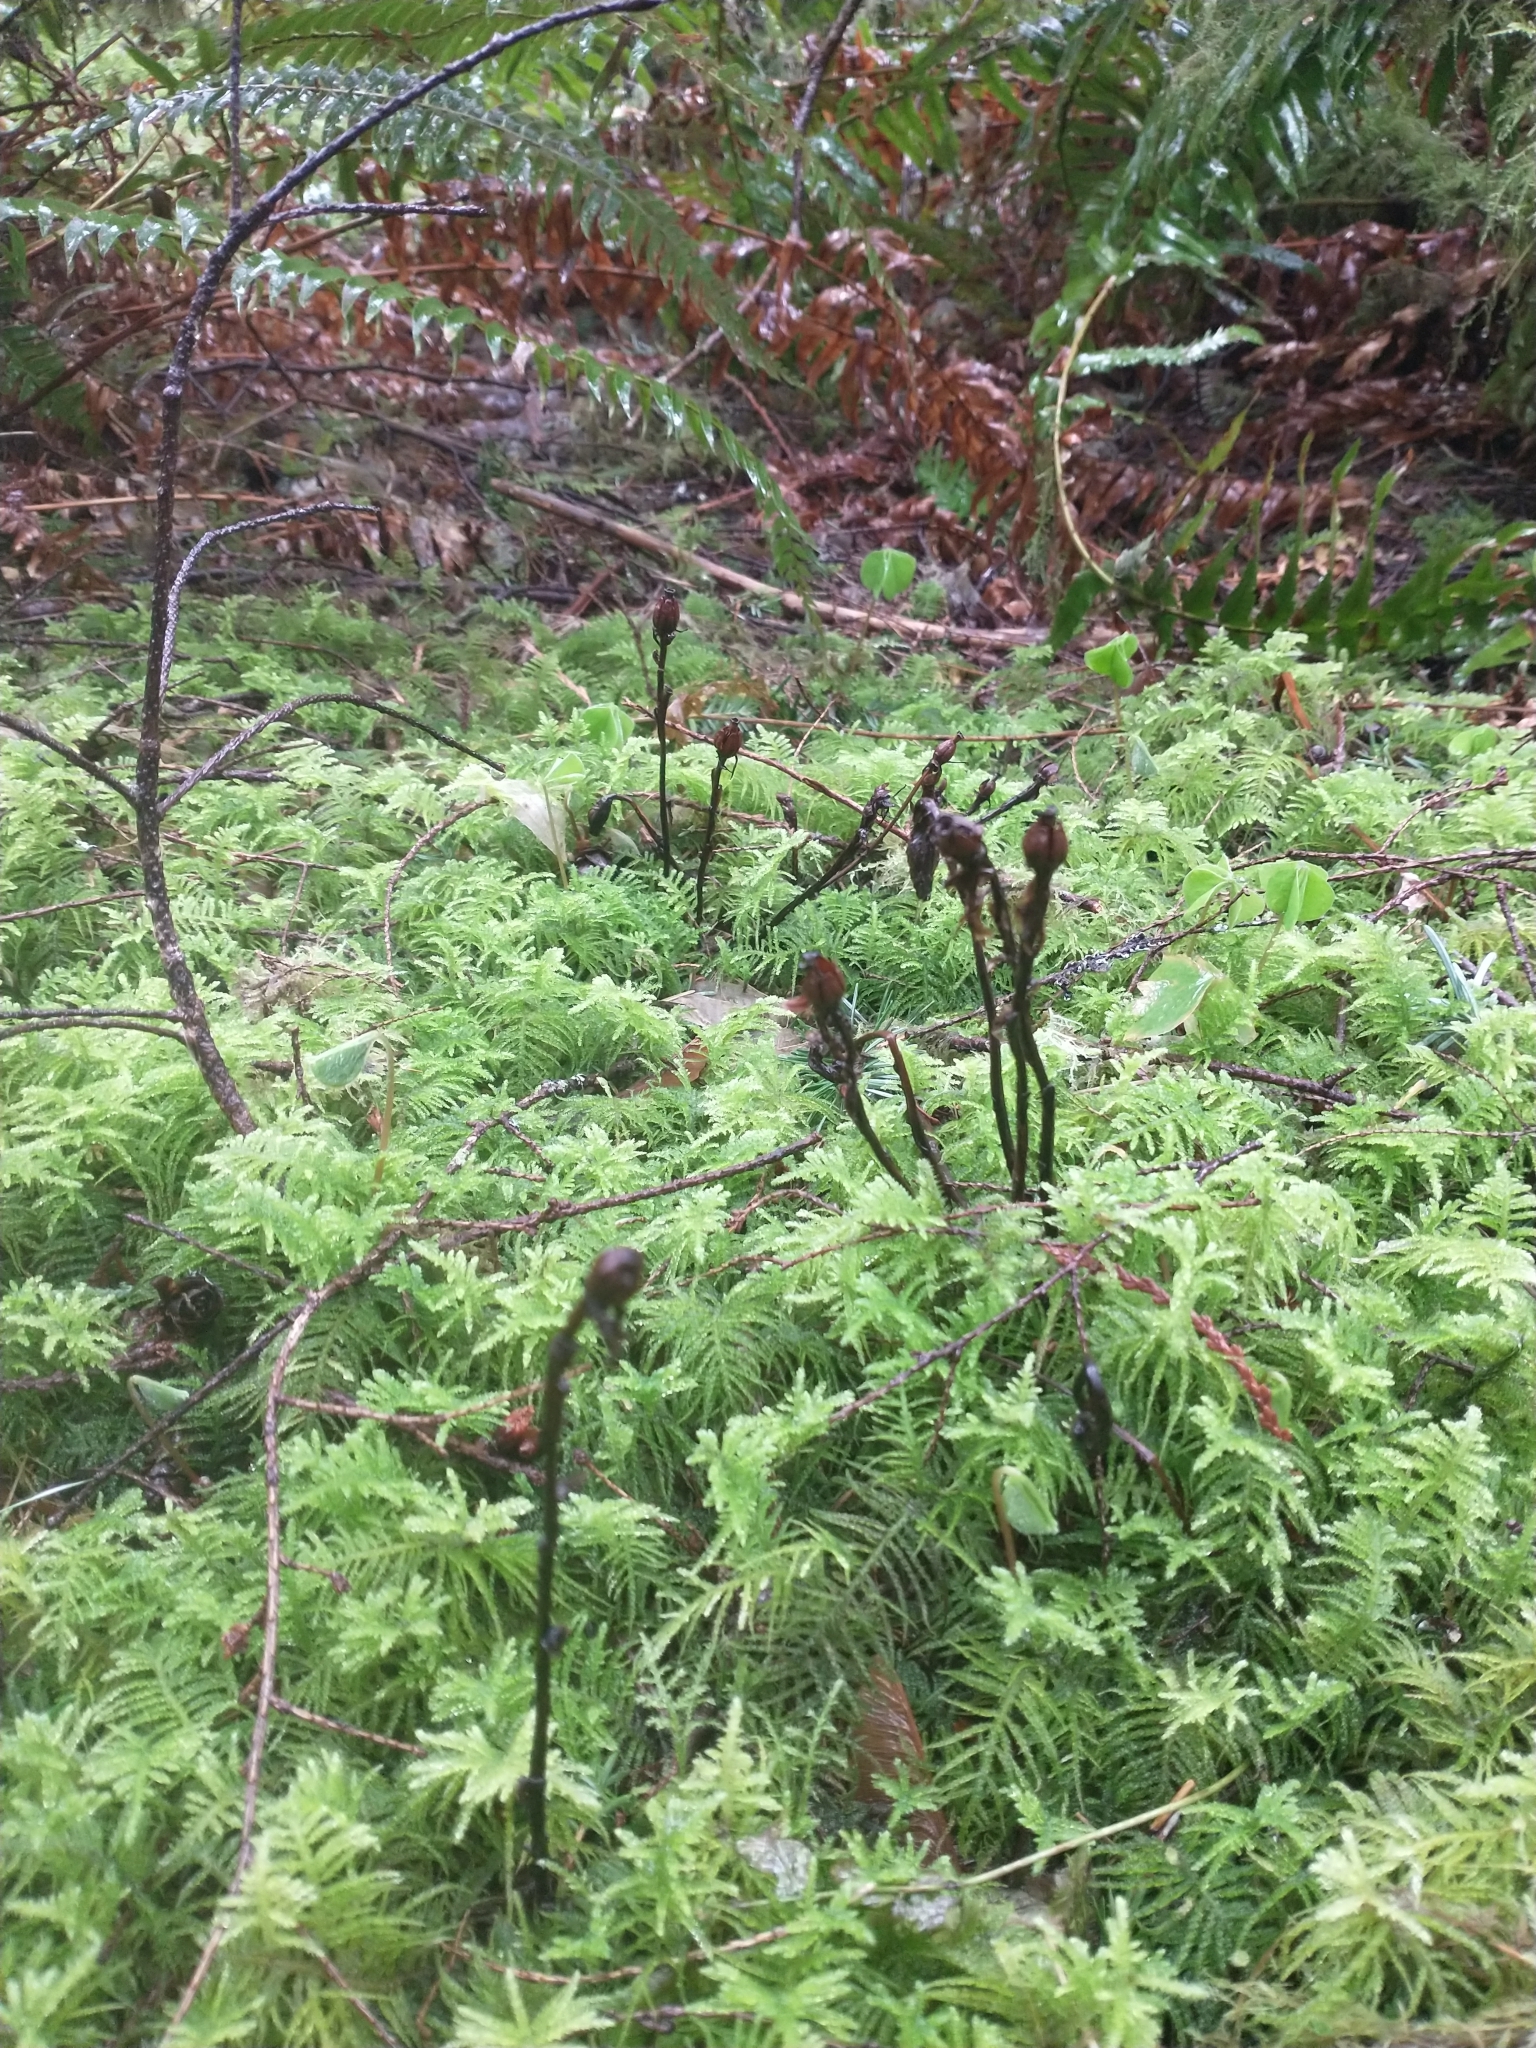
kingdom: Plantae
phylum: Tracheophyta
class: Magnoliopsida
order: Ericales
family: Ericaceae
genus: Monotropa
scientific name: Monotropa uniflora
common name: Convulsion root
